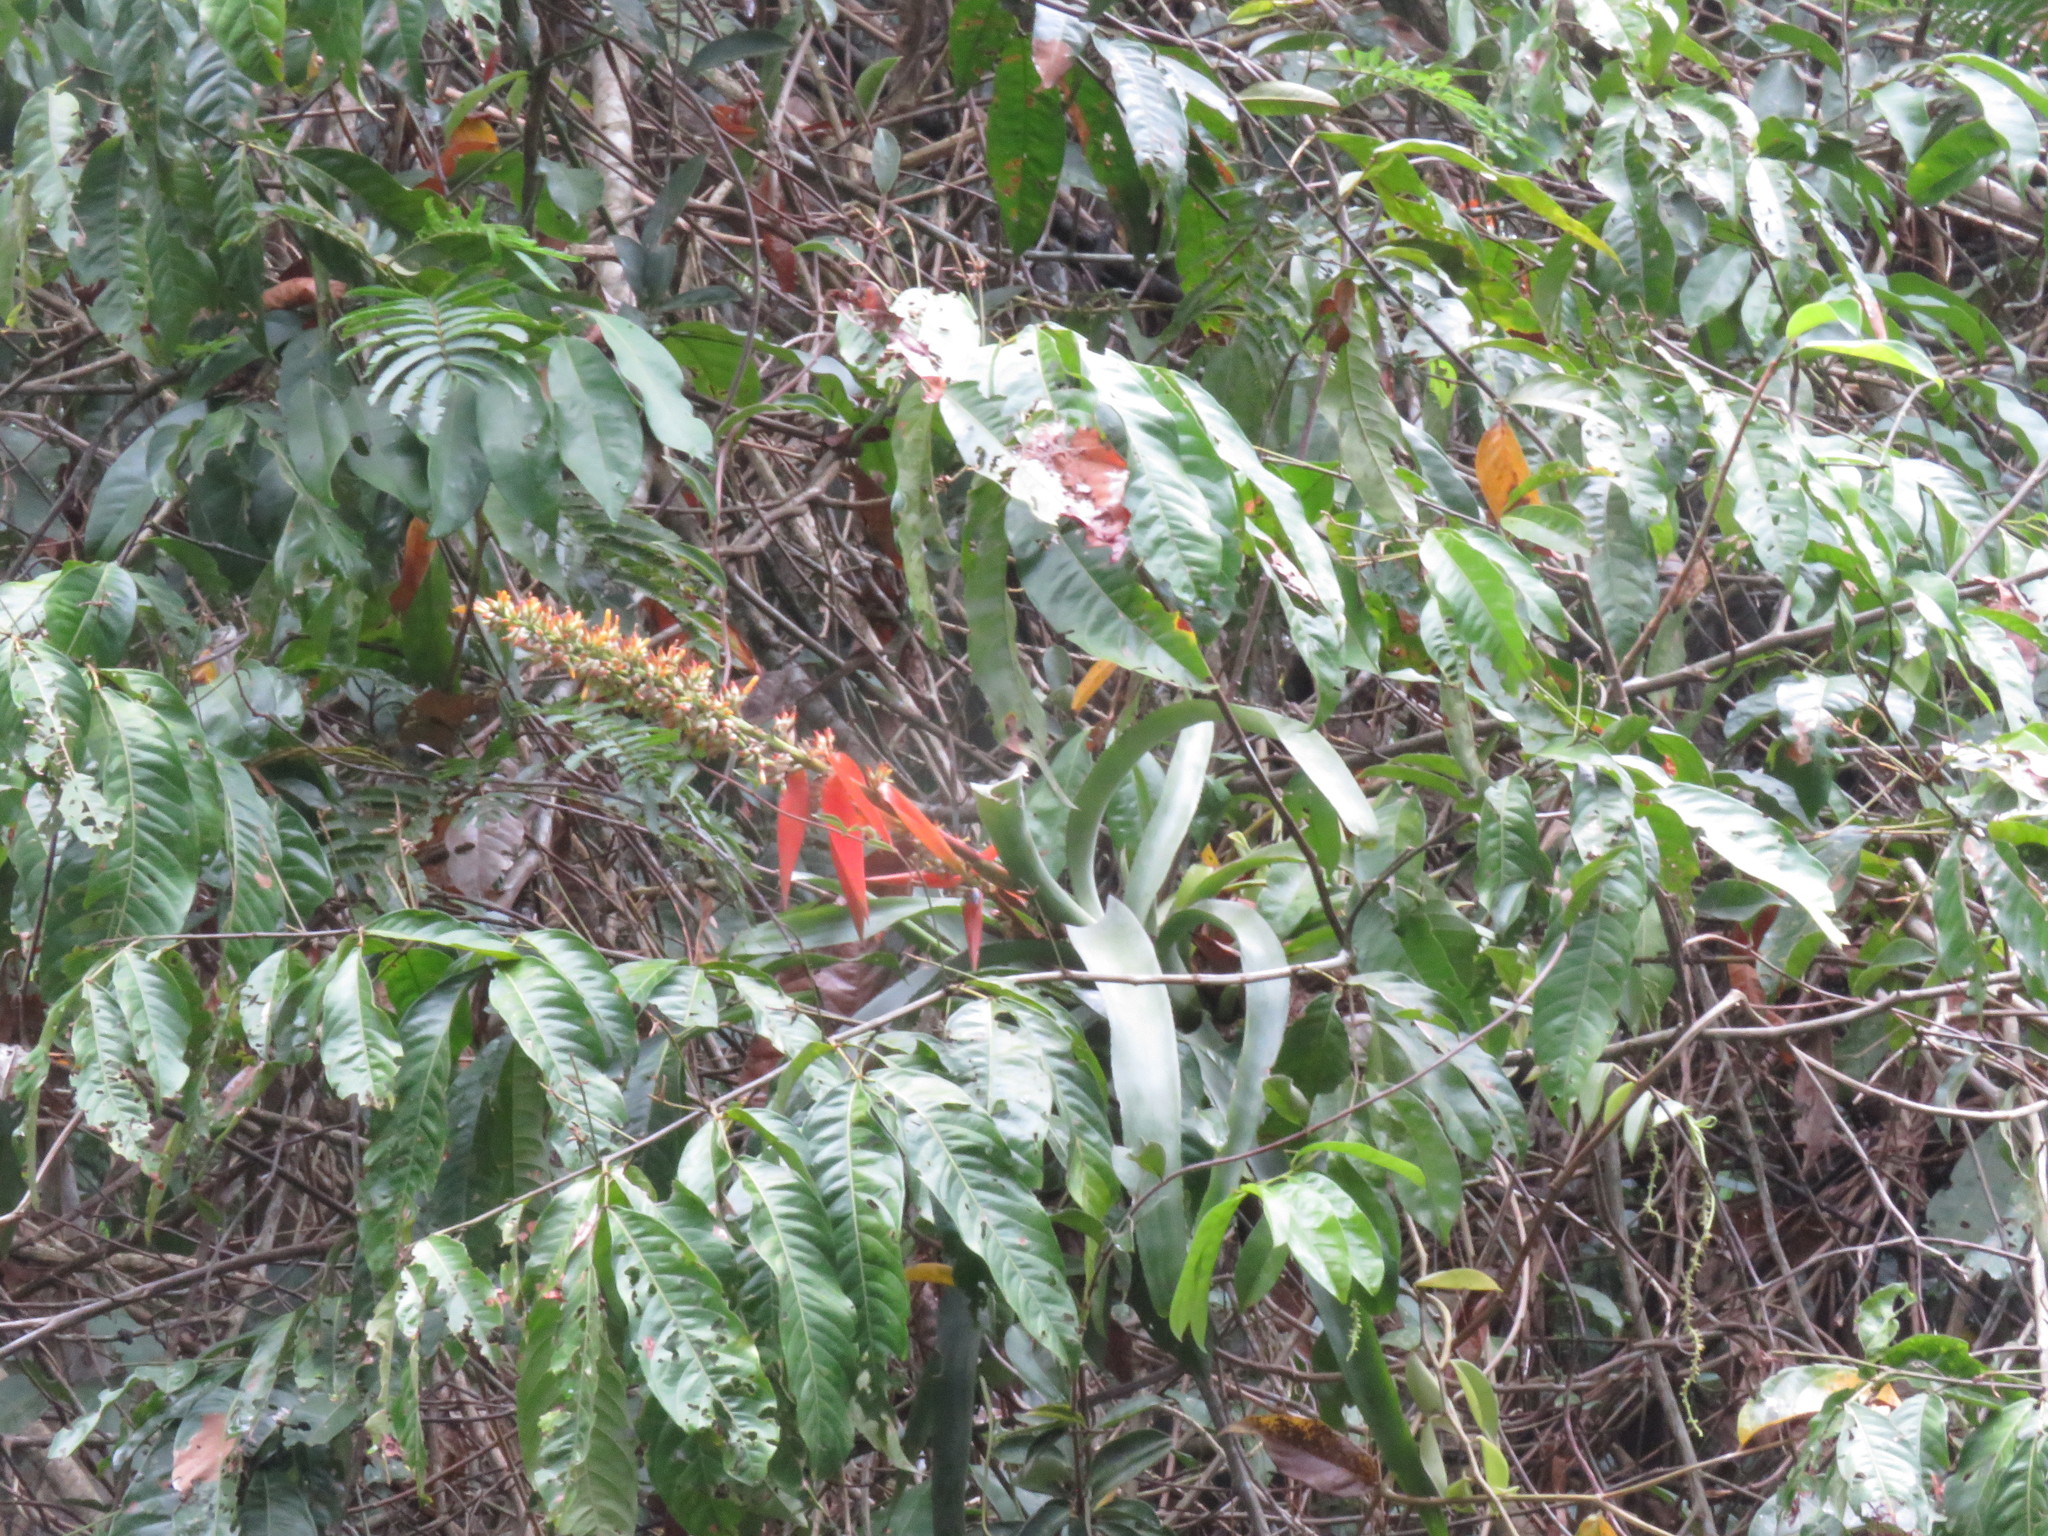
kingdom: Plantae
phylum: Tracheophyta
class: Liliopsida
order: Poales
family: Bromeliaceae
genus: Aechmea
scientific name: Aechmea angustifolia
